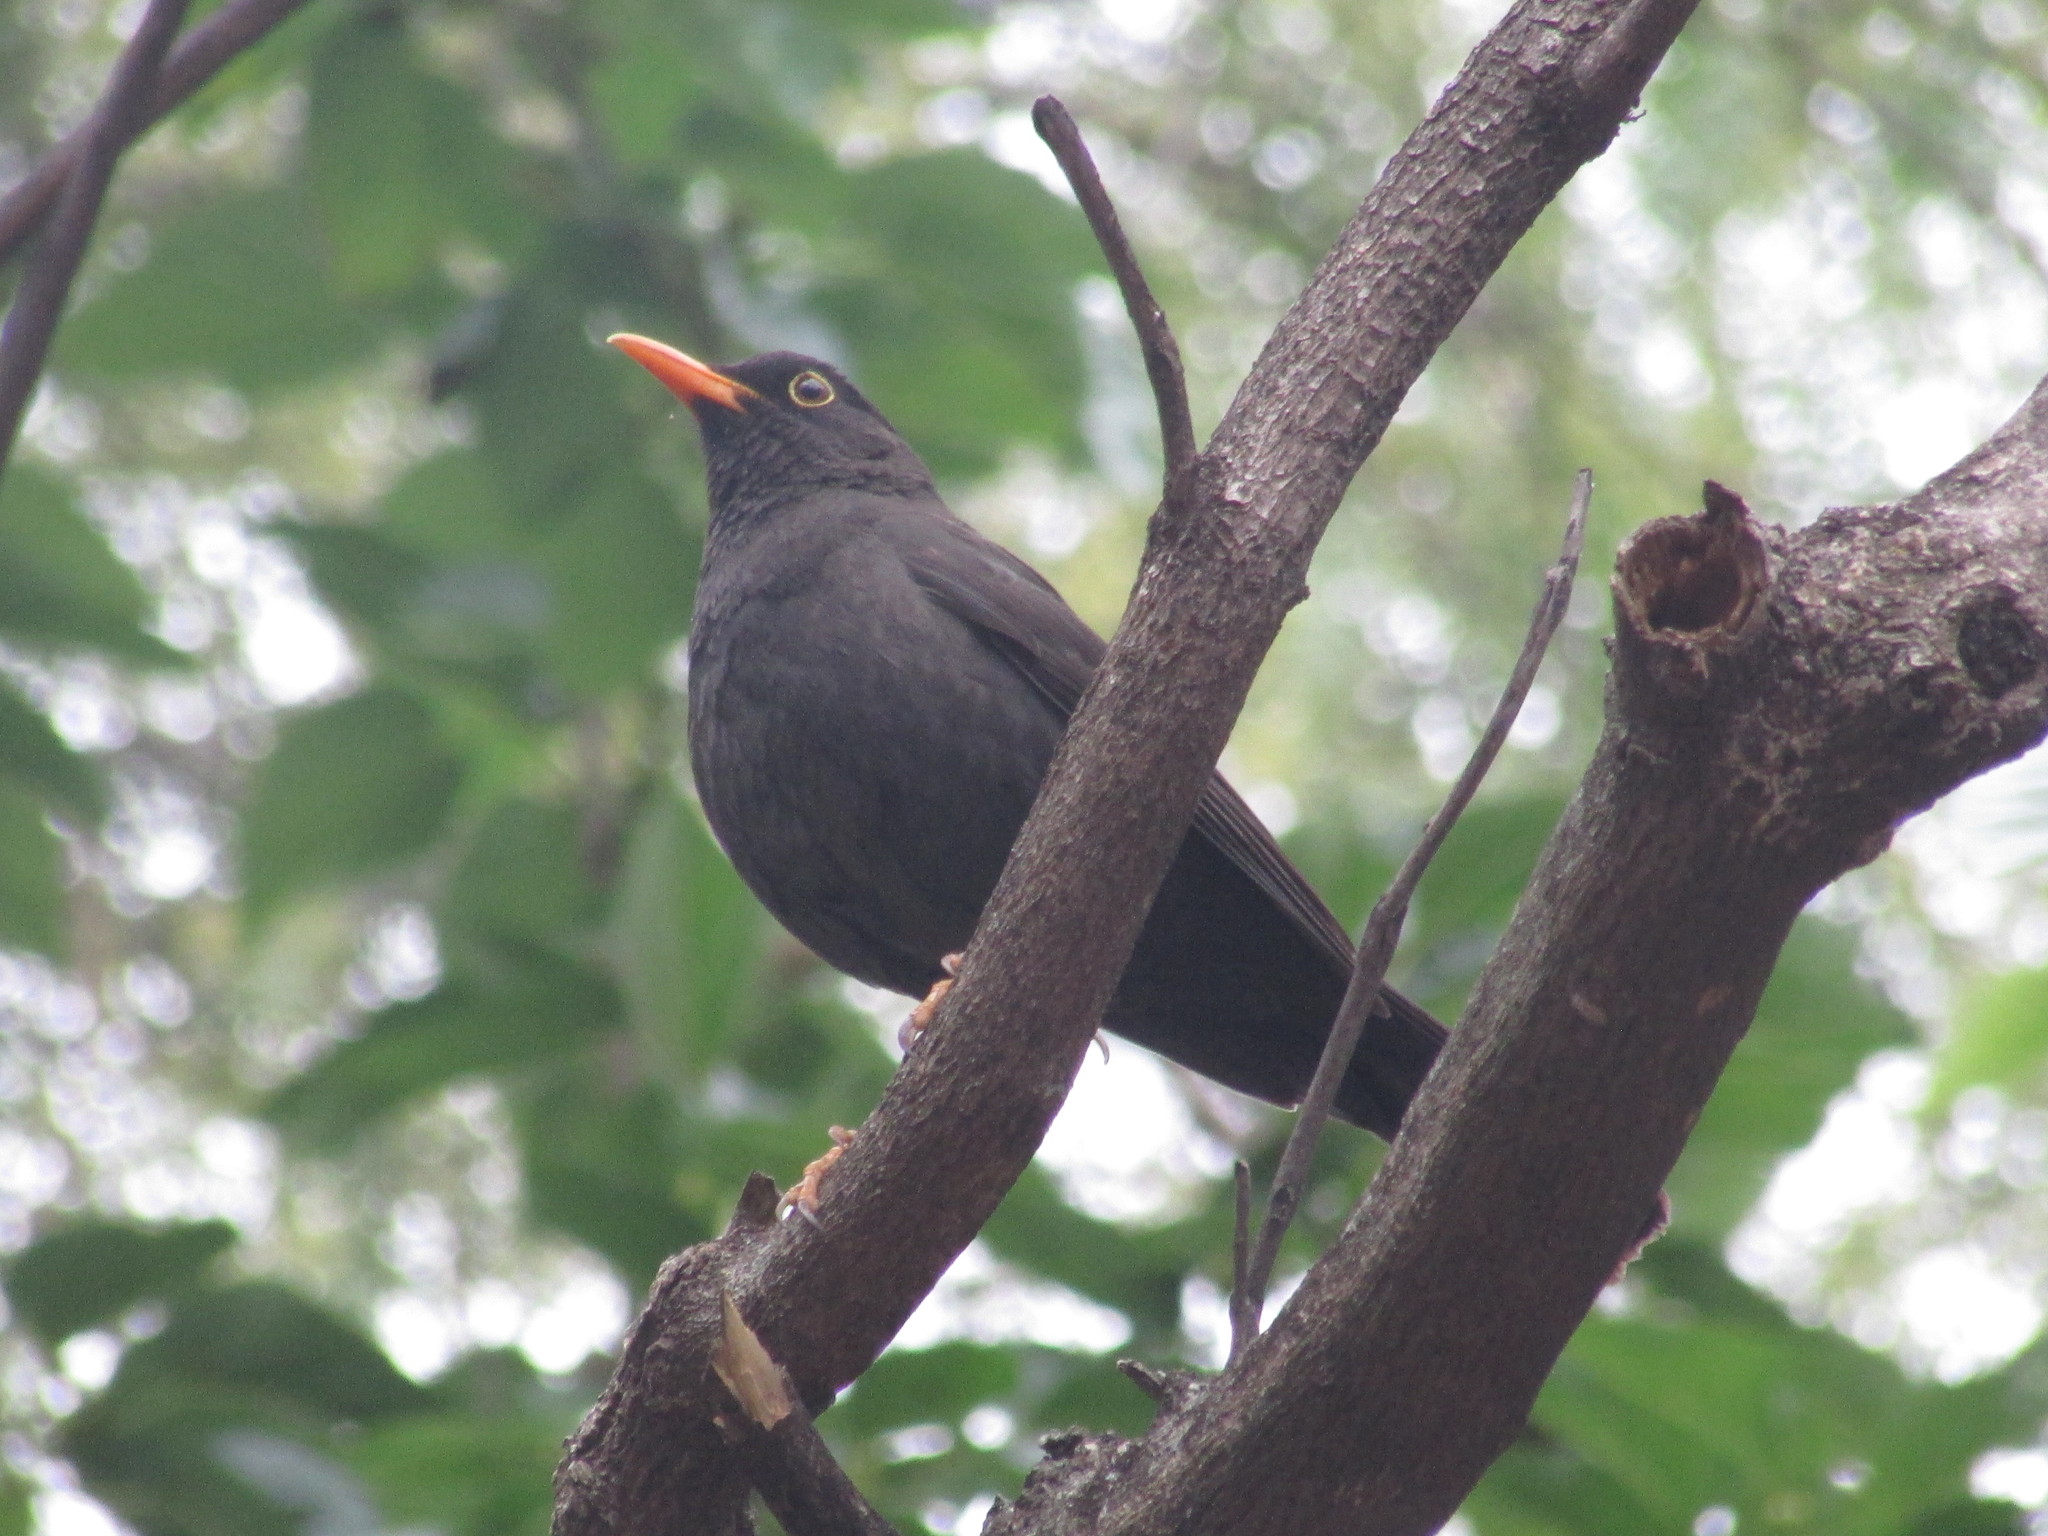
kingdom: Animalia
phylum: Chordata
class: Aves
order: Passeriformes
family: Turdidae
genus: Turdus
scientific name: Turdus chiguanco
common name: Chiguanco thrush
